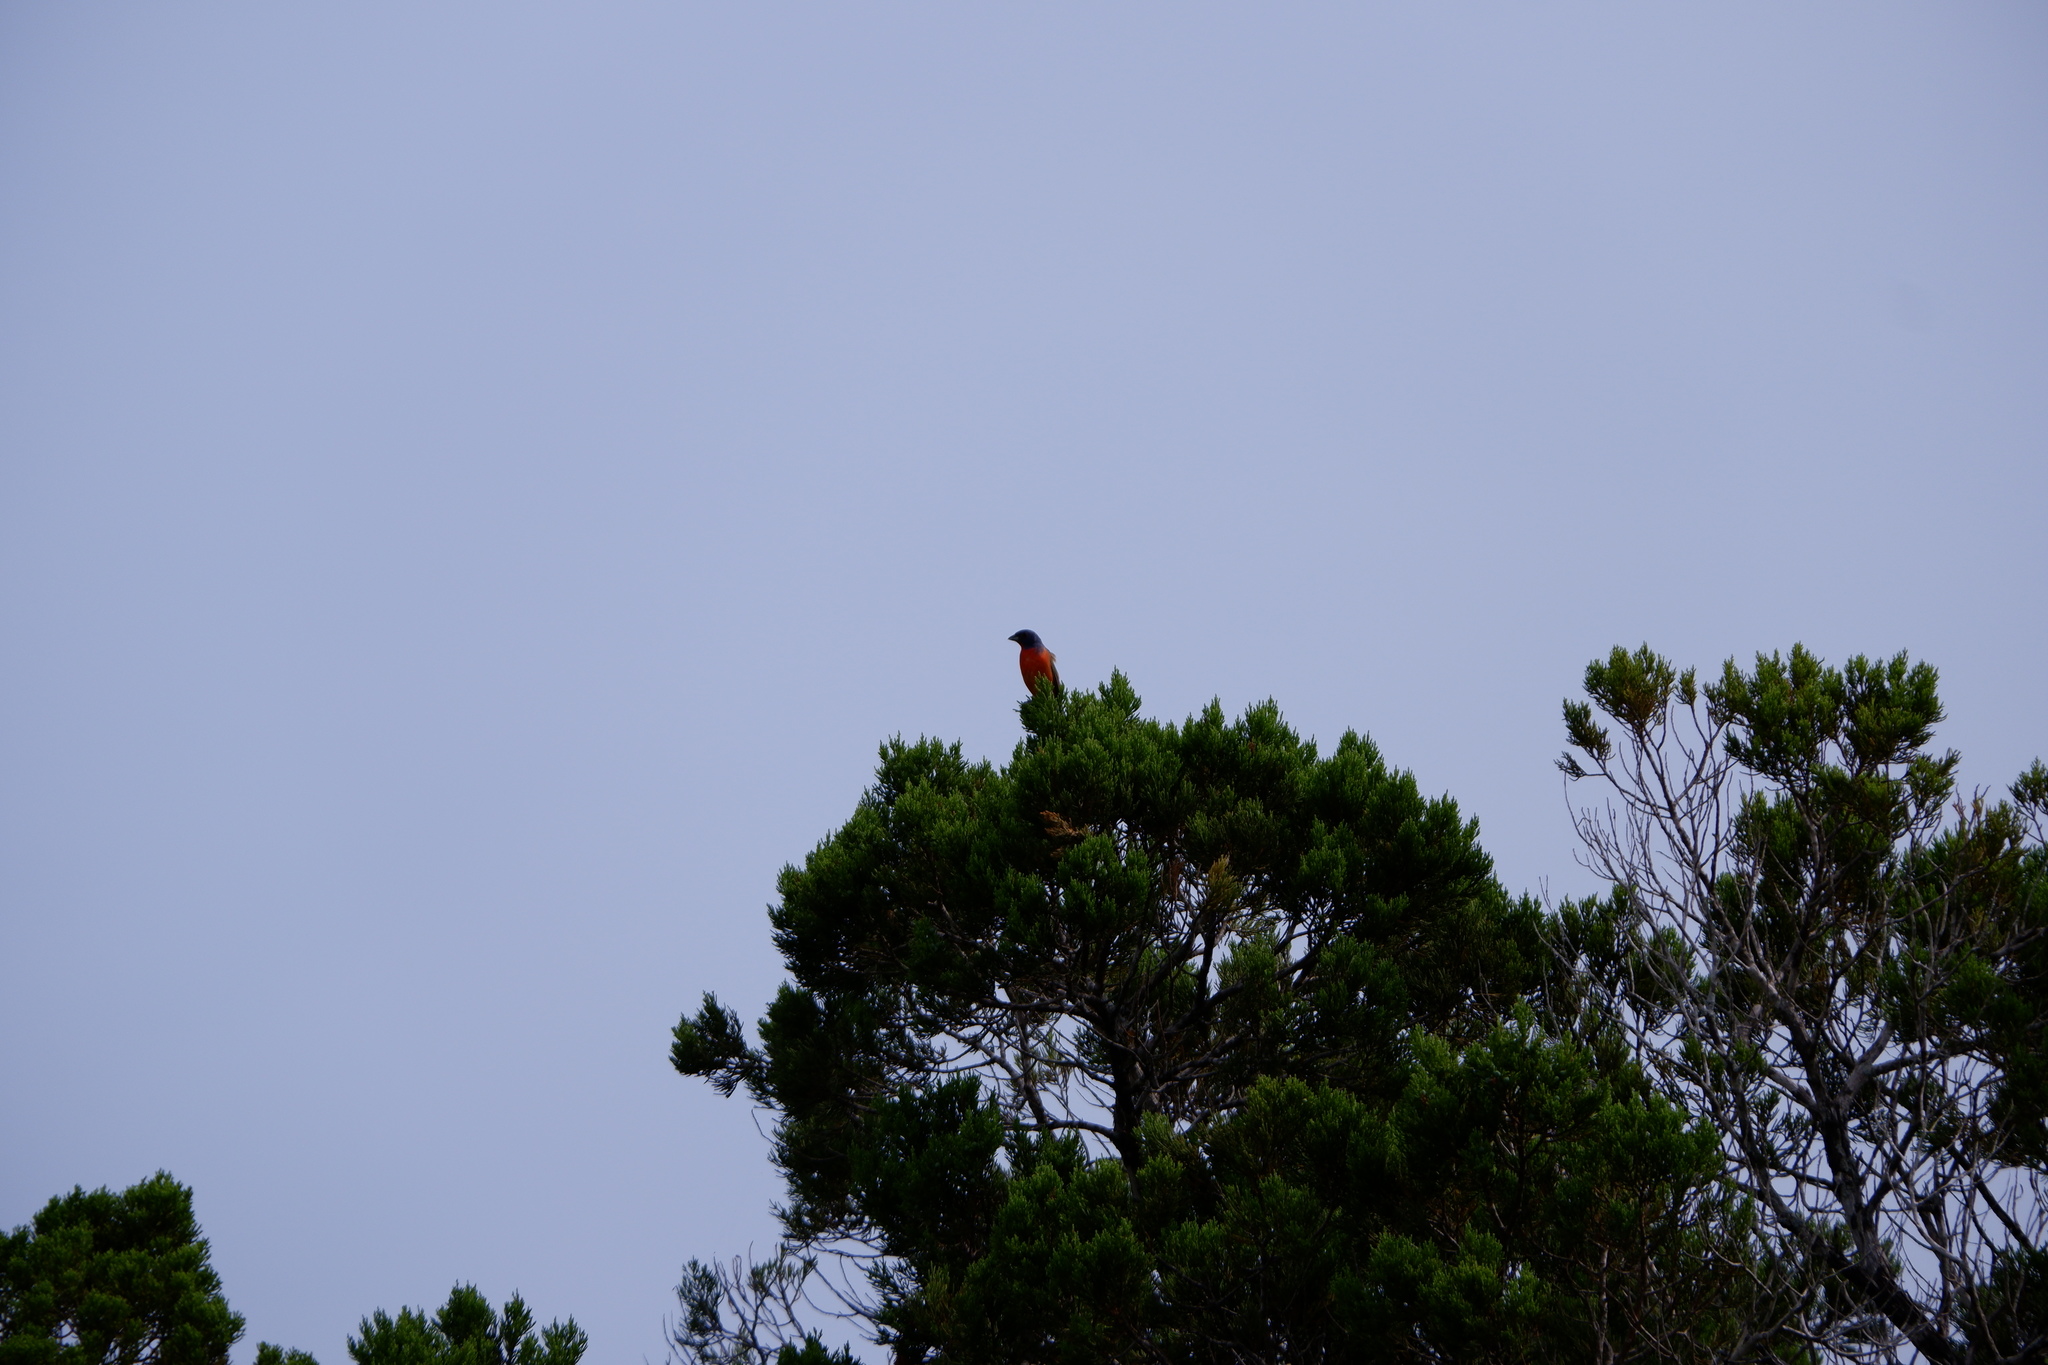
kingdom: Animalia
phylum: Chordata
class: Aves
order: Passeriformes
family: Cardinalidae
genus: Passerina
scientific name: Passerina ciris
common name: Painted bunting
